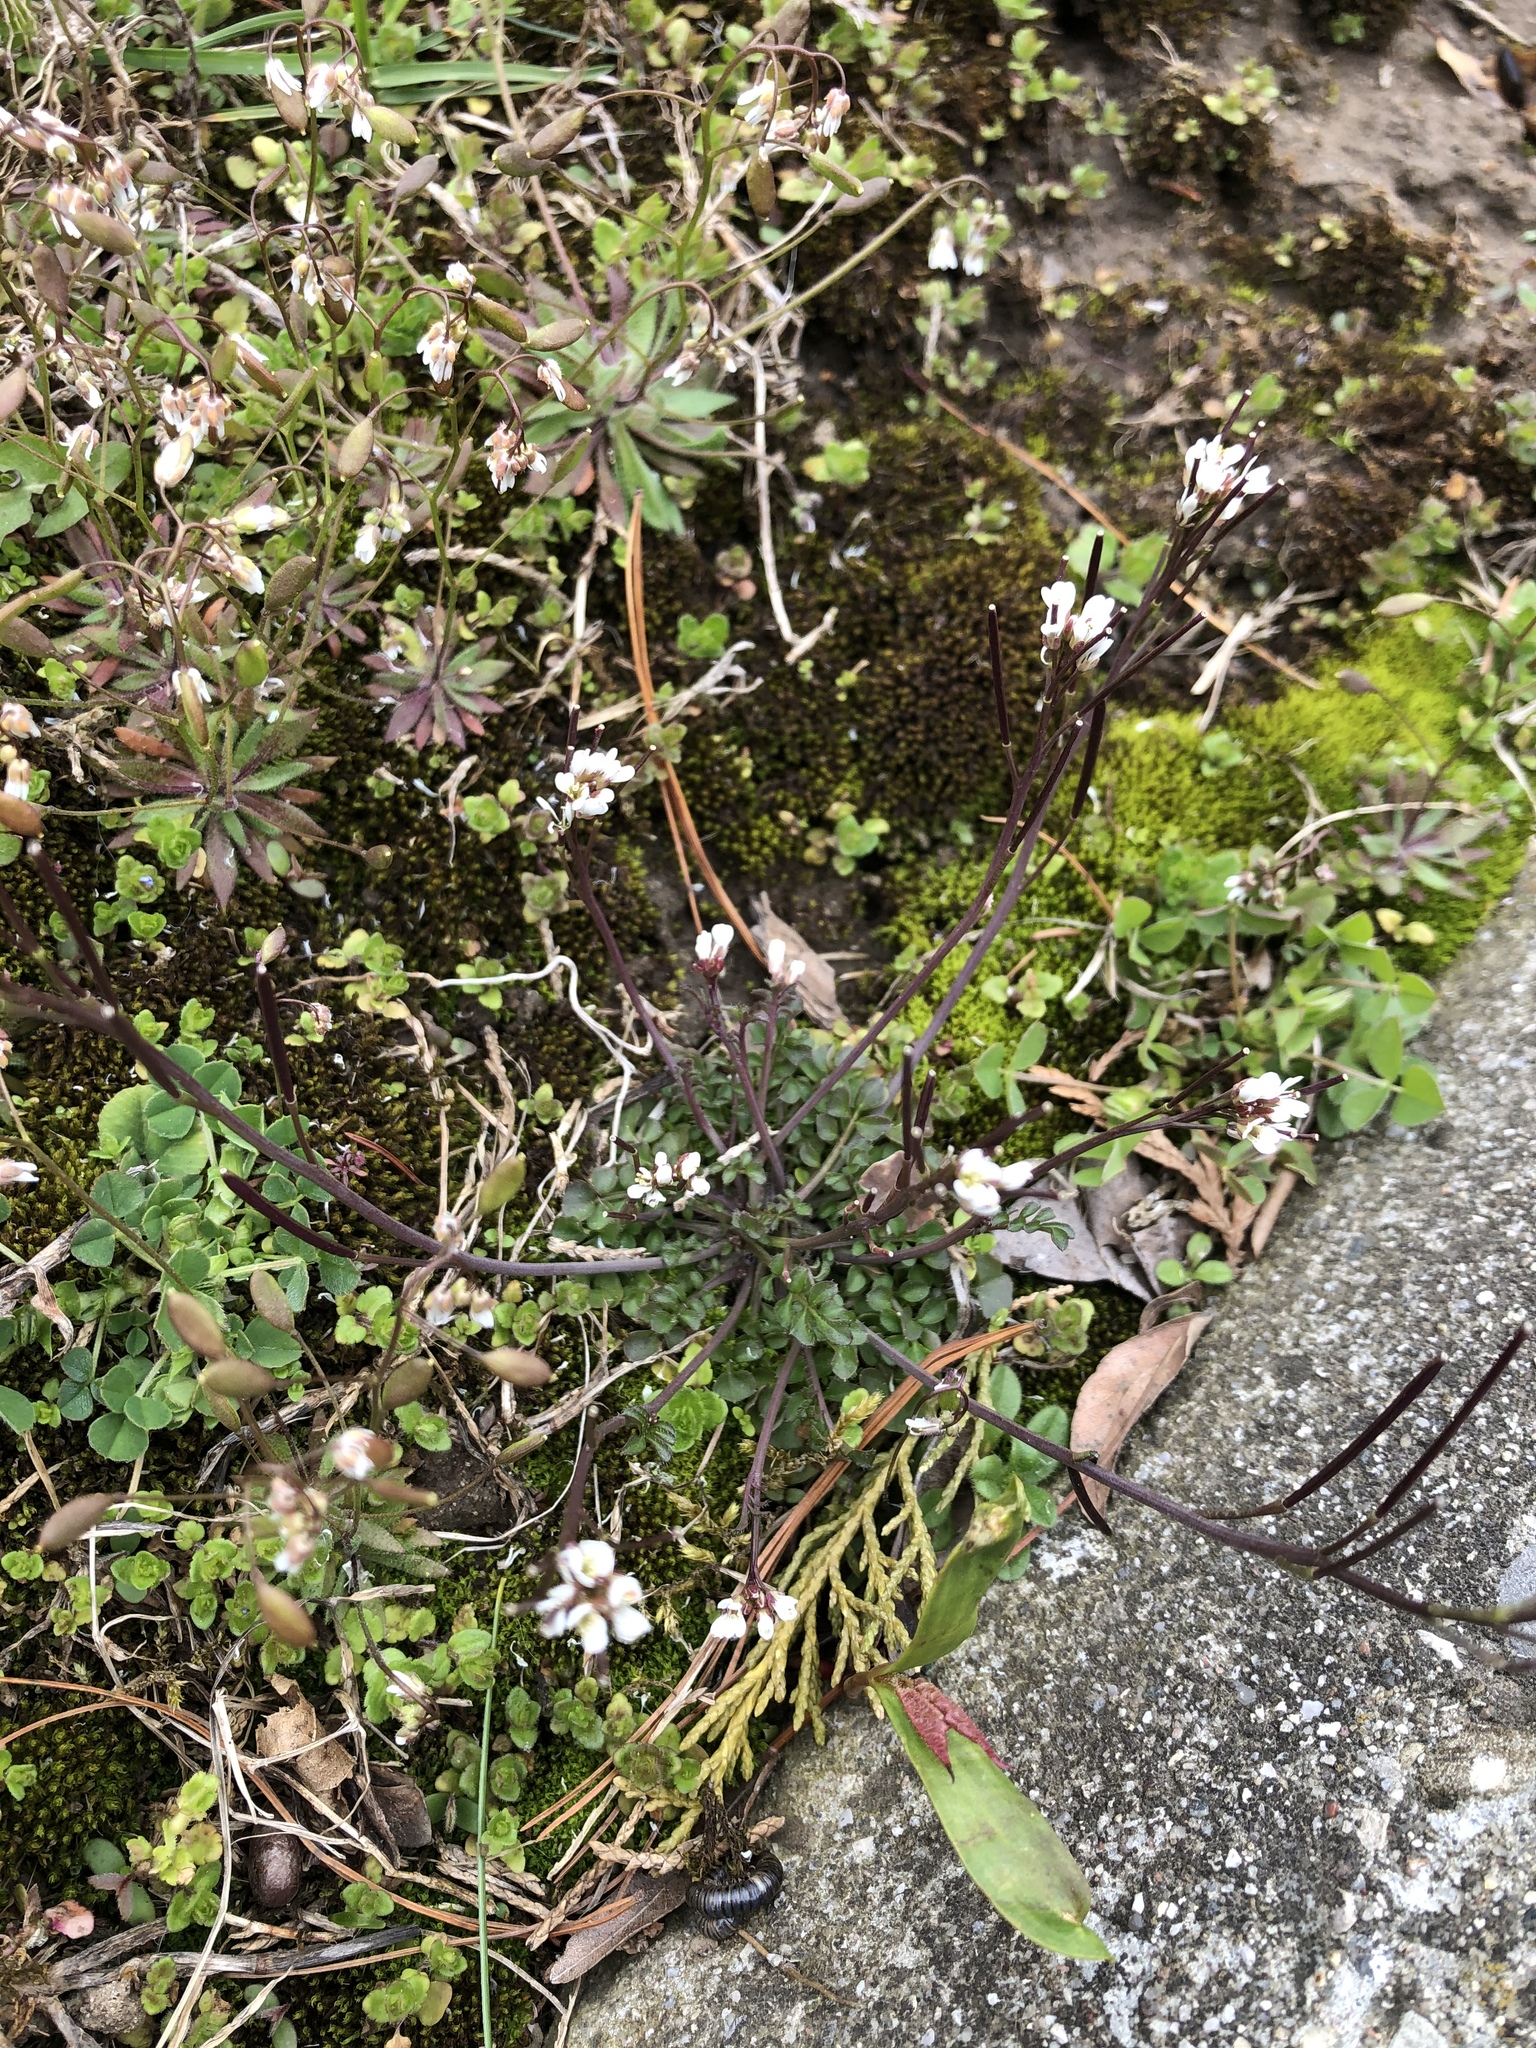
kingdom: Plantae
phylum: Tracheophyta
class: Magnoliopsida
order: Brassicales
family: Brassicaceae
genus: Draba
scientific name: Draba verna
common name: Spring draba
